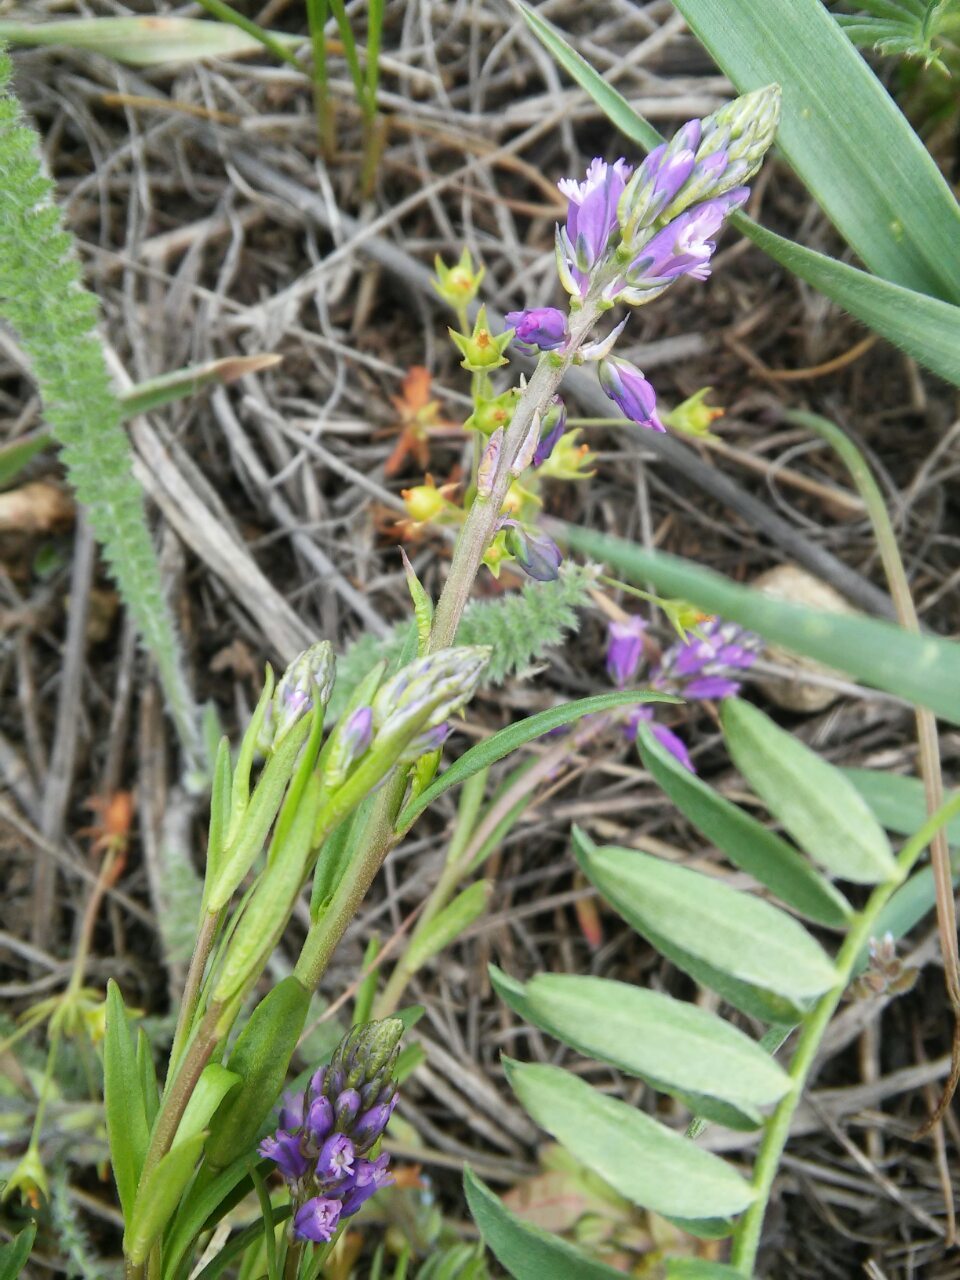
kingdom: Plantae
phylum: Tracheophyta
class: Magnoliopsida
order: Fabales
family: Polygalaceae
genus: Polygala
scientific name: Polygala comosa
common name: Tufted milkwort
